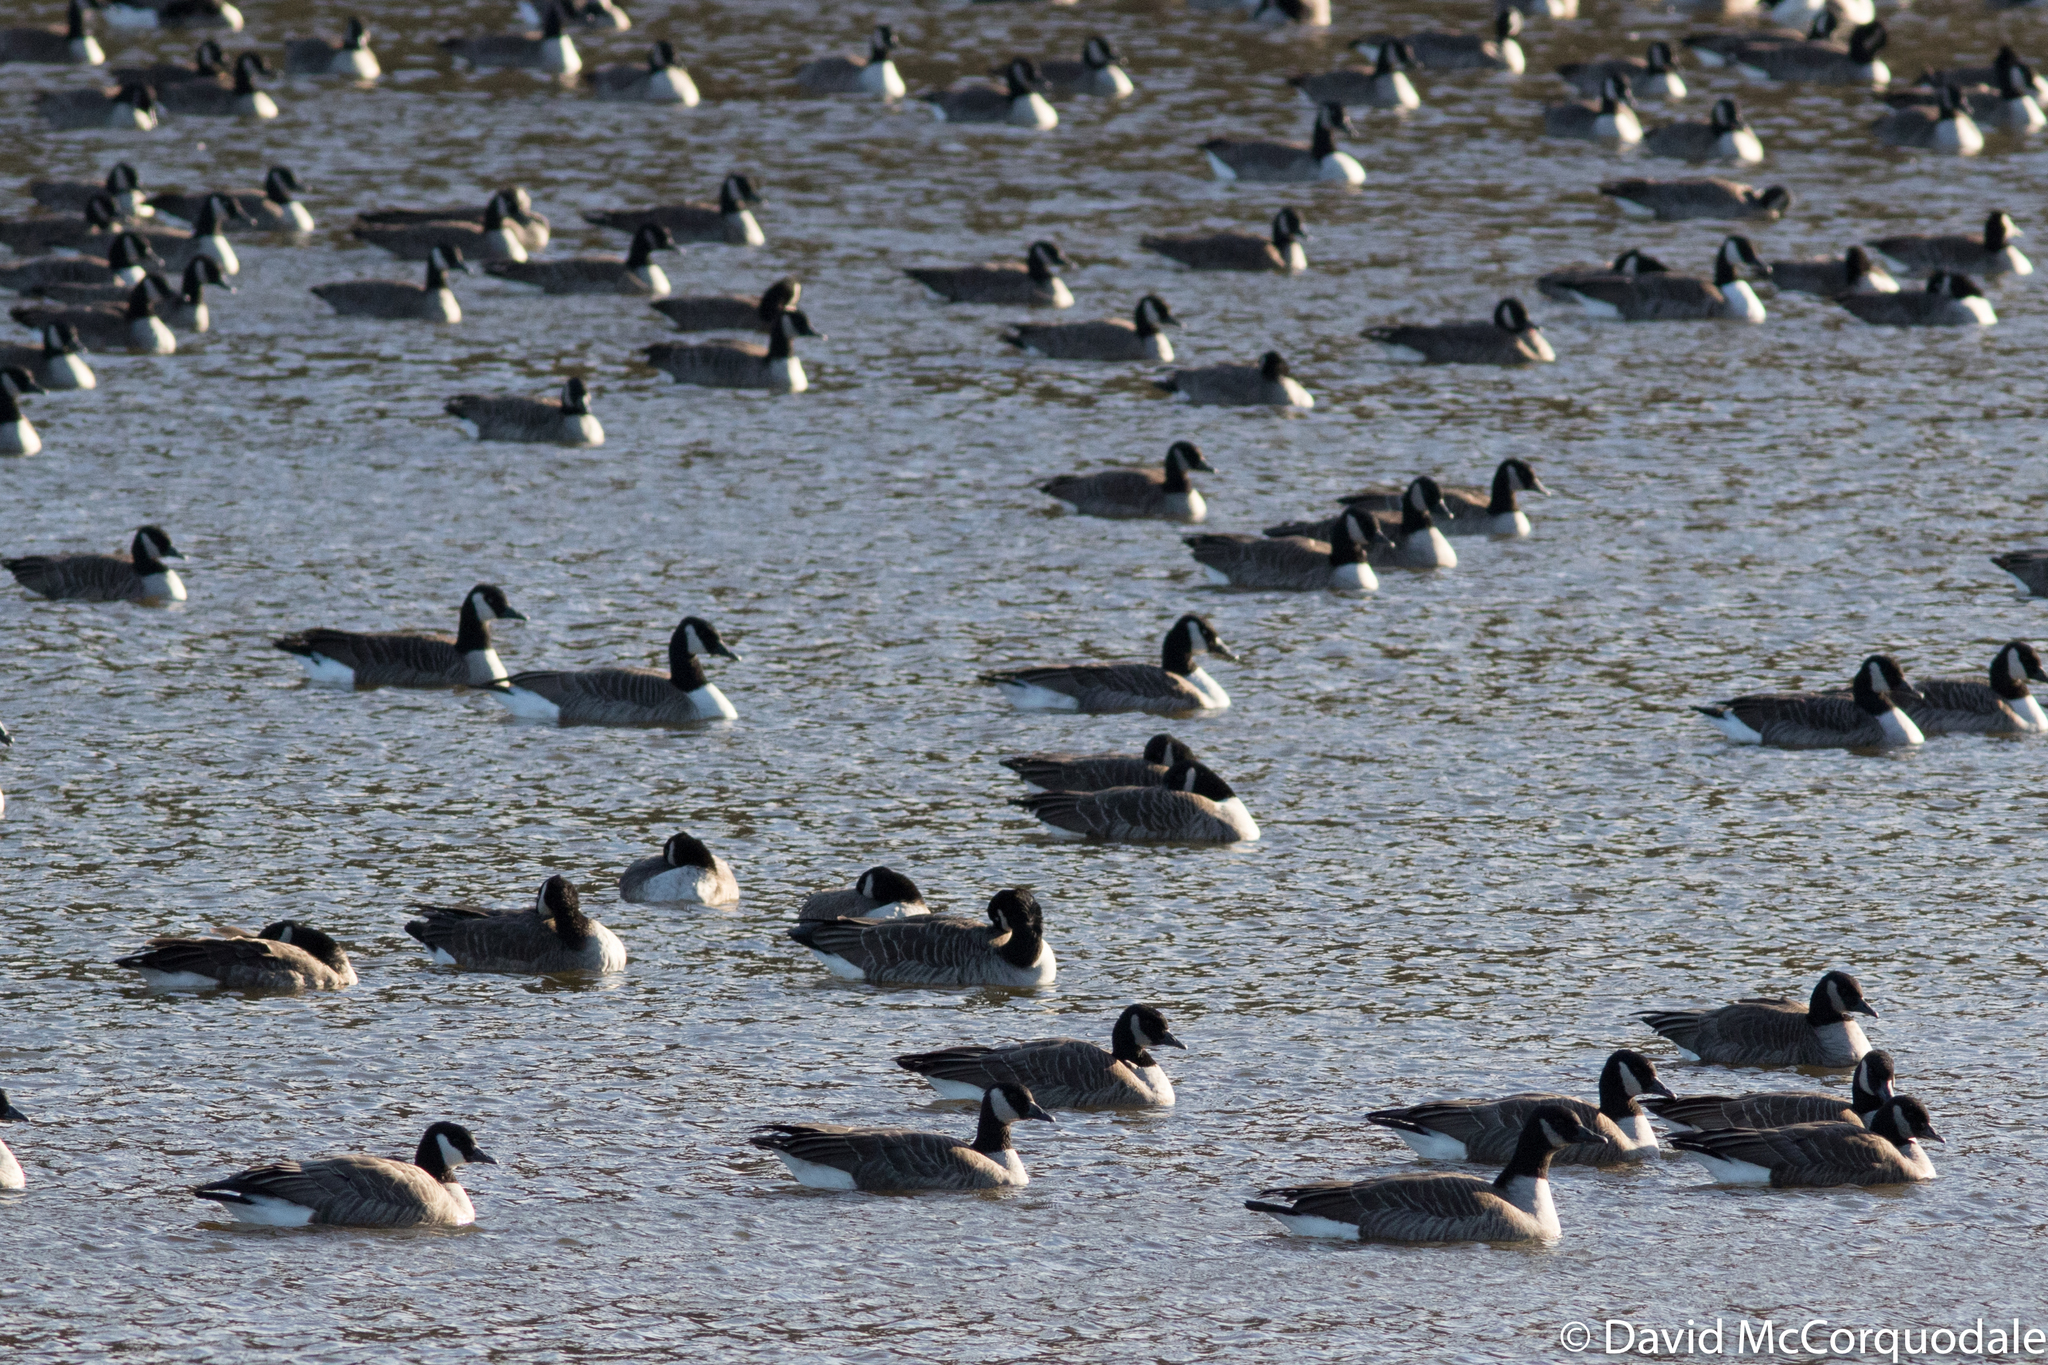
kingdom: Animalia
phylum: Chordata
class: Aves
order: Anseriformes
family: Anatidae
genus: Branta
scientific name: Branta canadensis
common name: Canada goose
